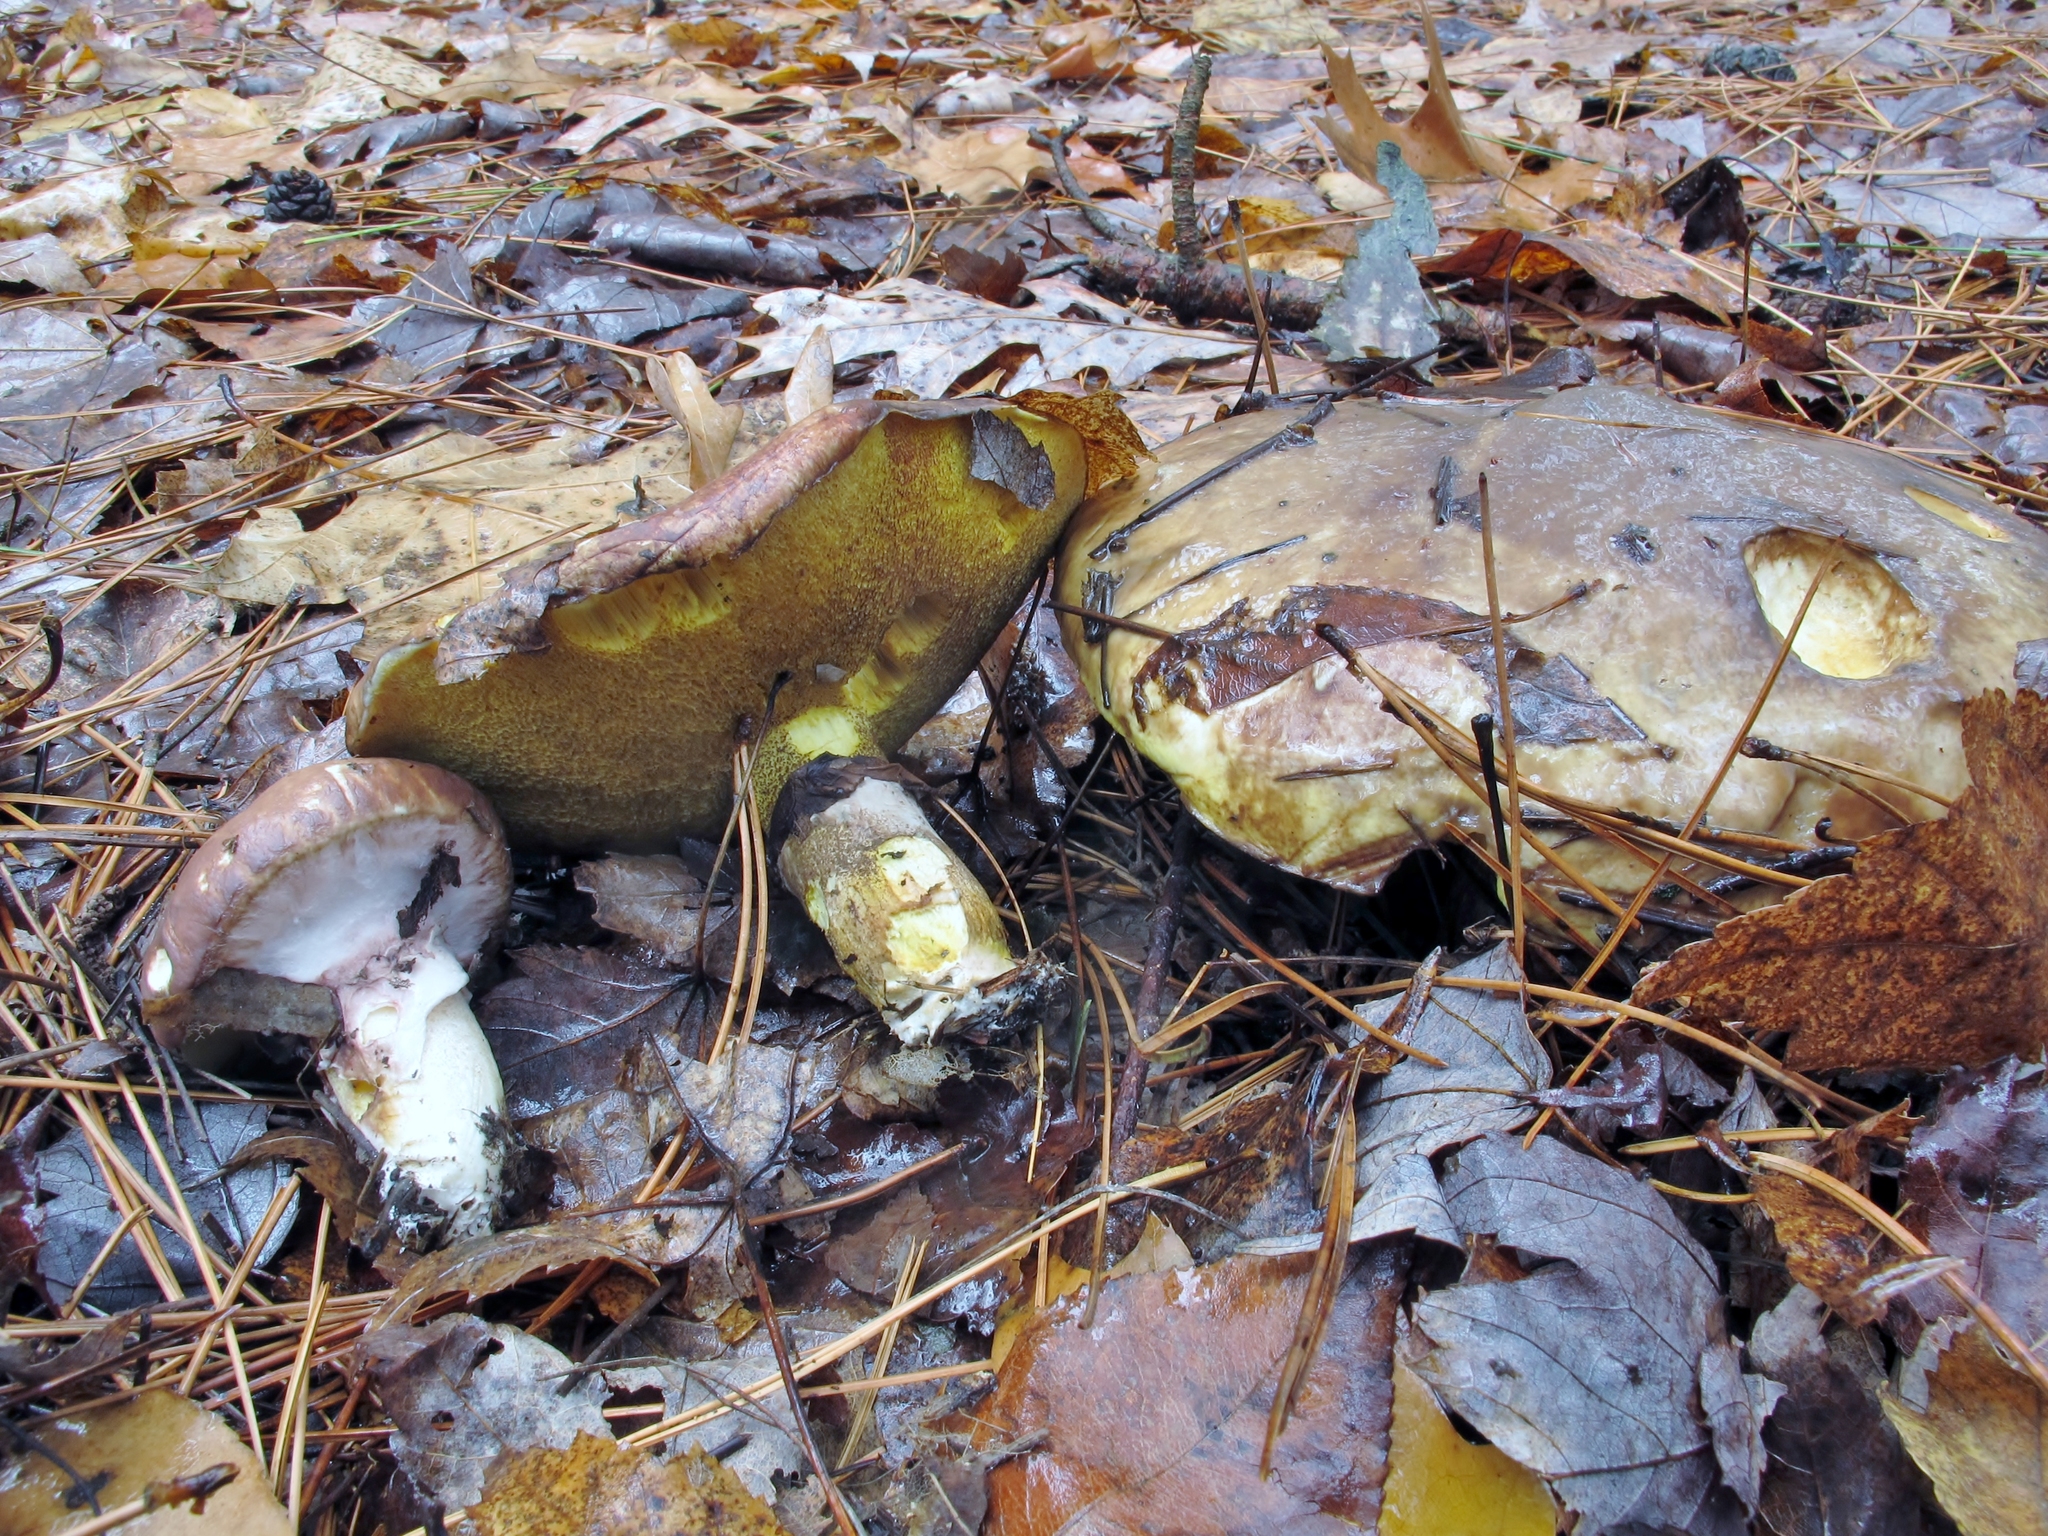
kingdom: Fungi
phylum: Basidiomycota
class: Agaricomycetes
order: Boletales
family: Suillaceae
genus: Suillus
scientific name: Suillus luteus
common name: Slippery jack
